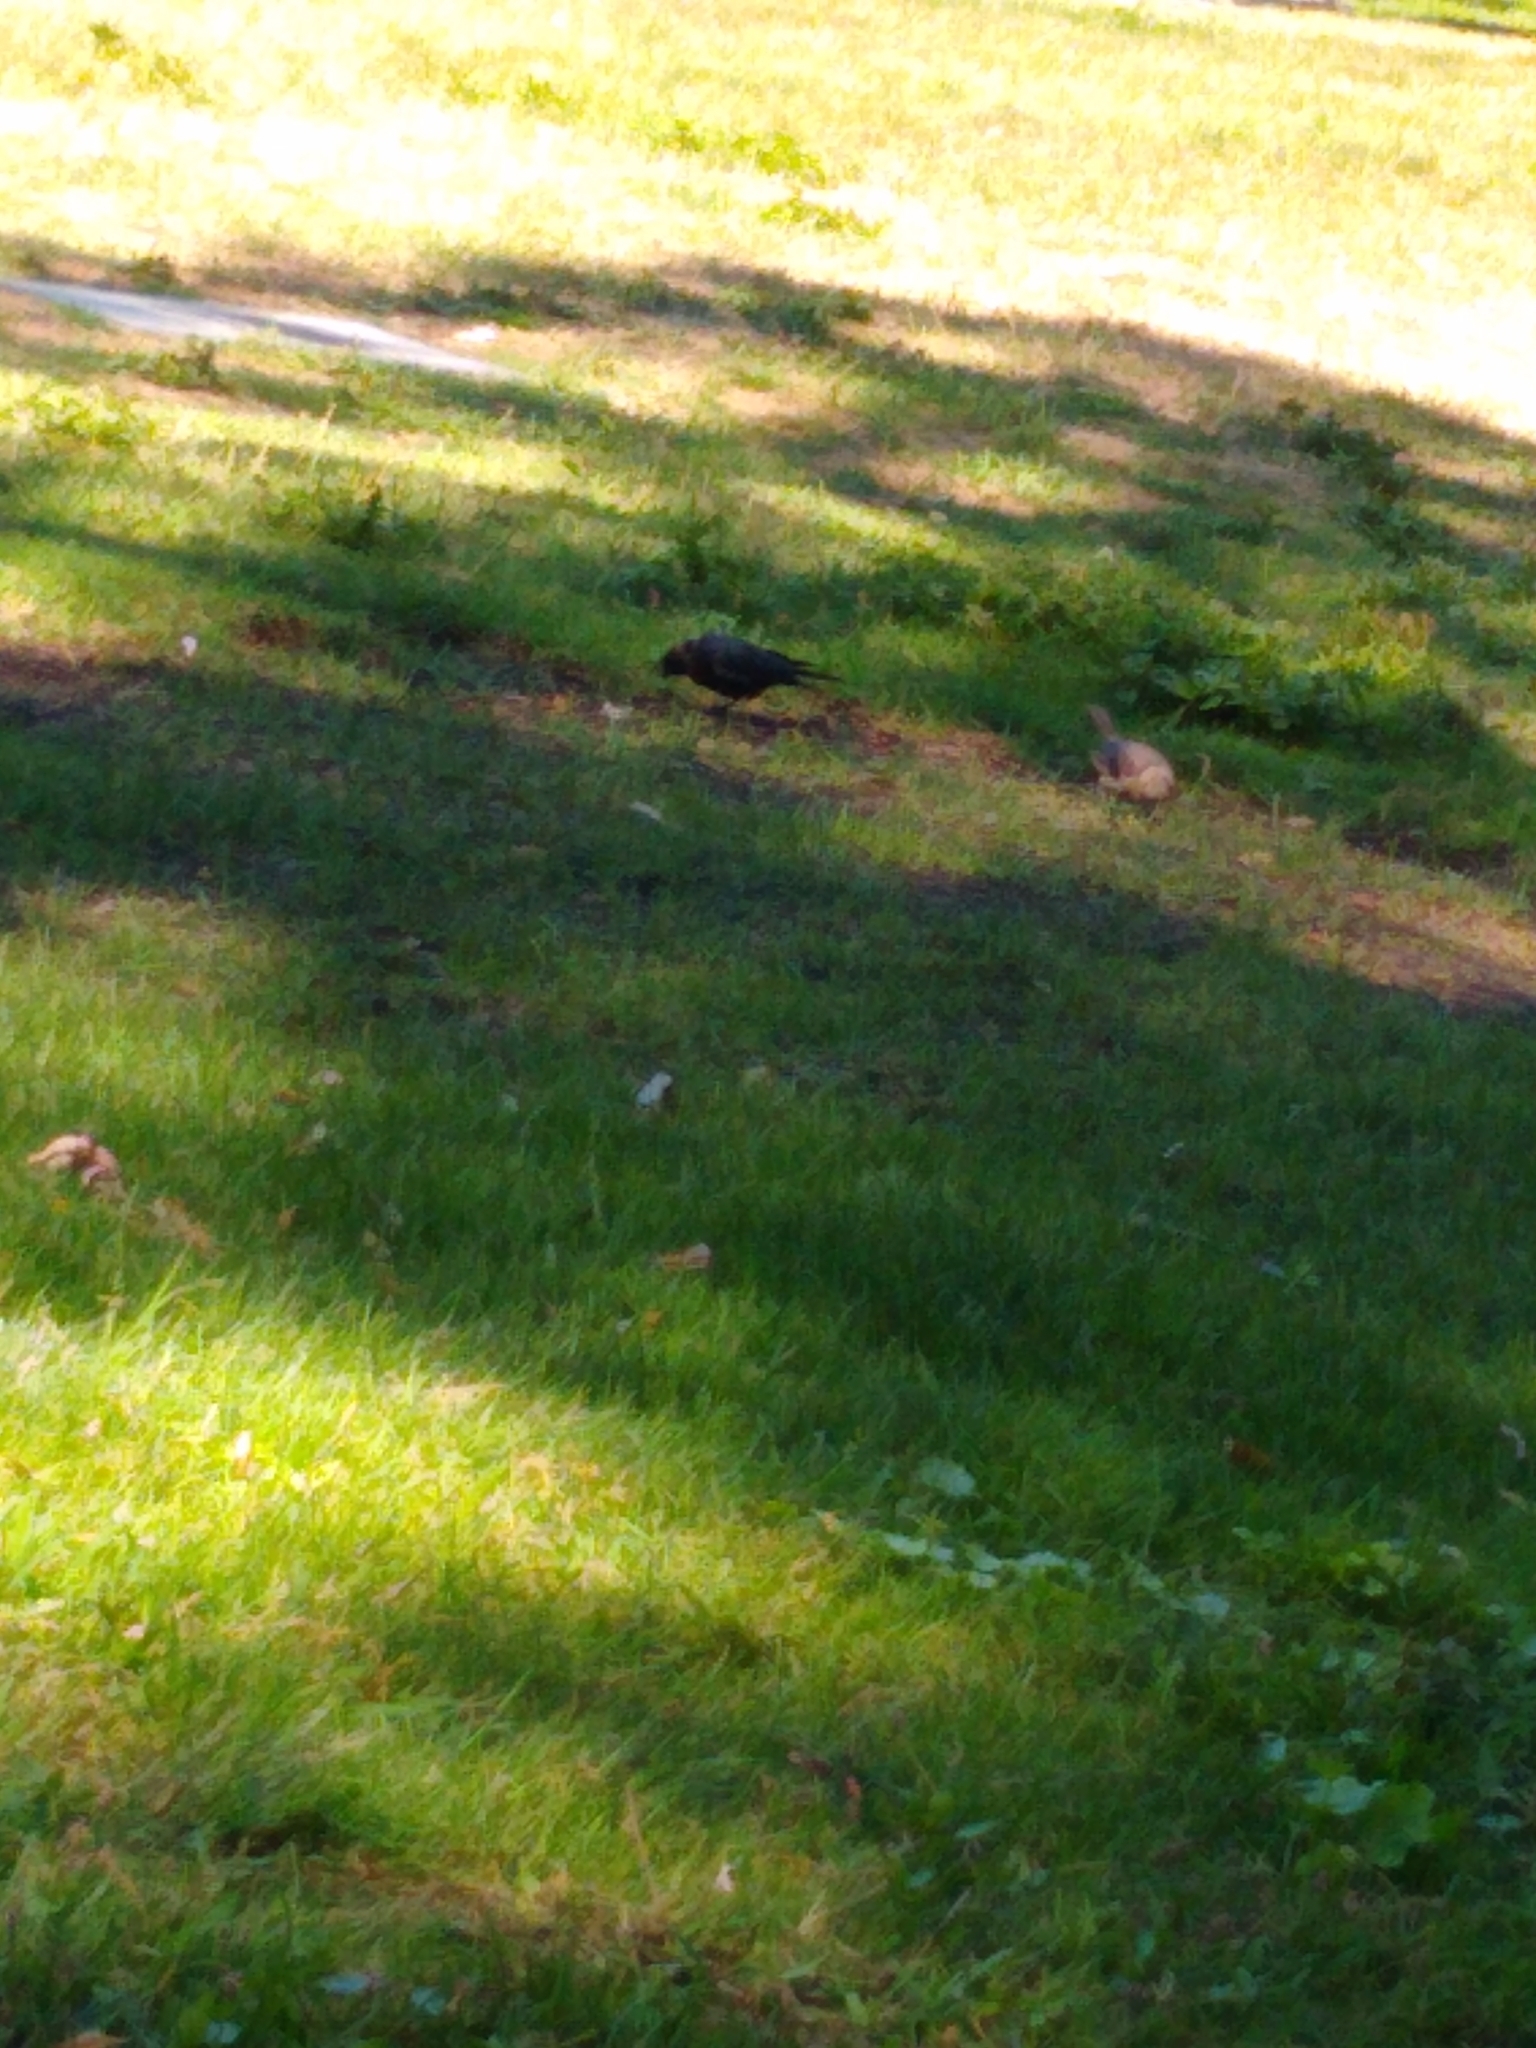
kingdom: Animalia
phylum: Chordata
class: Aves
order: Passeriformes
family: Icteridae
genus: Molothrus
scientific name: Molothrus ater
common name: Brown-headed cowbird
